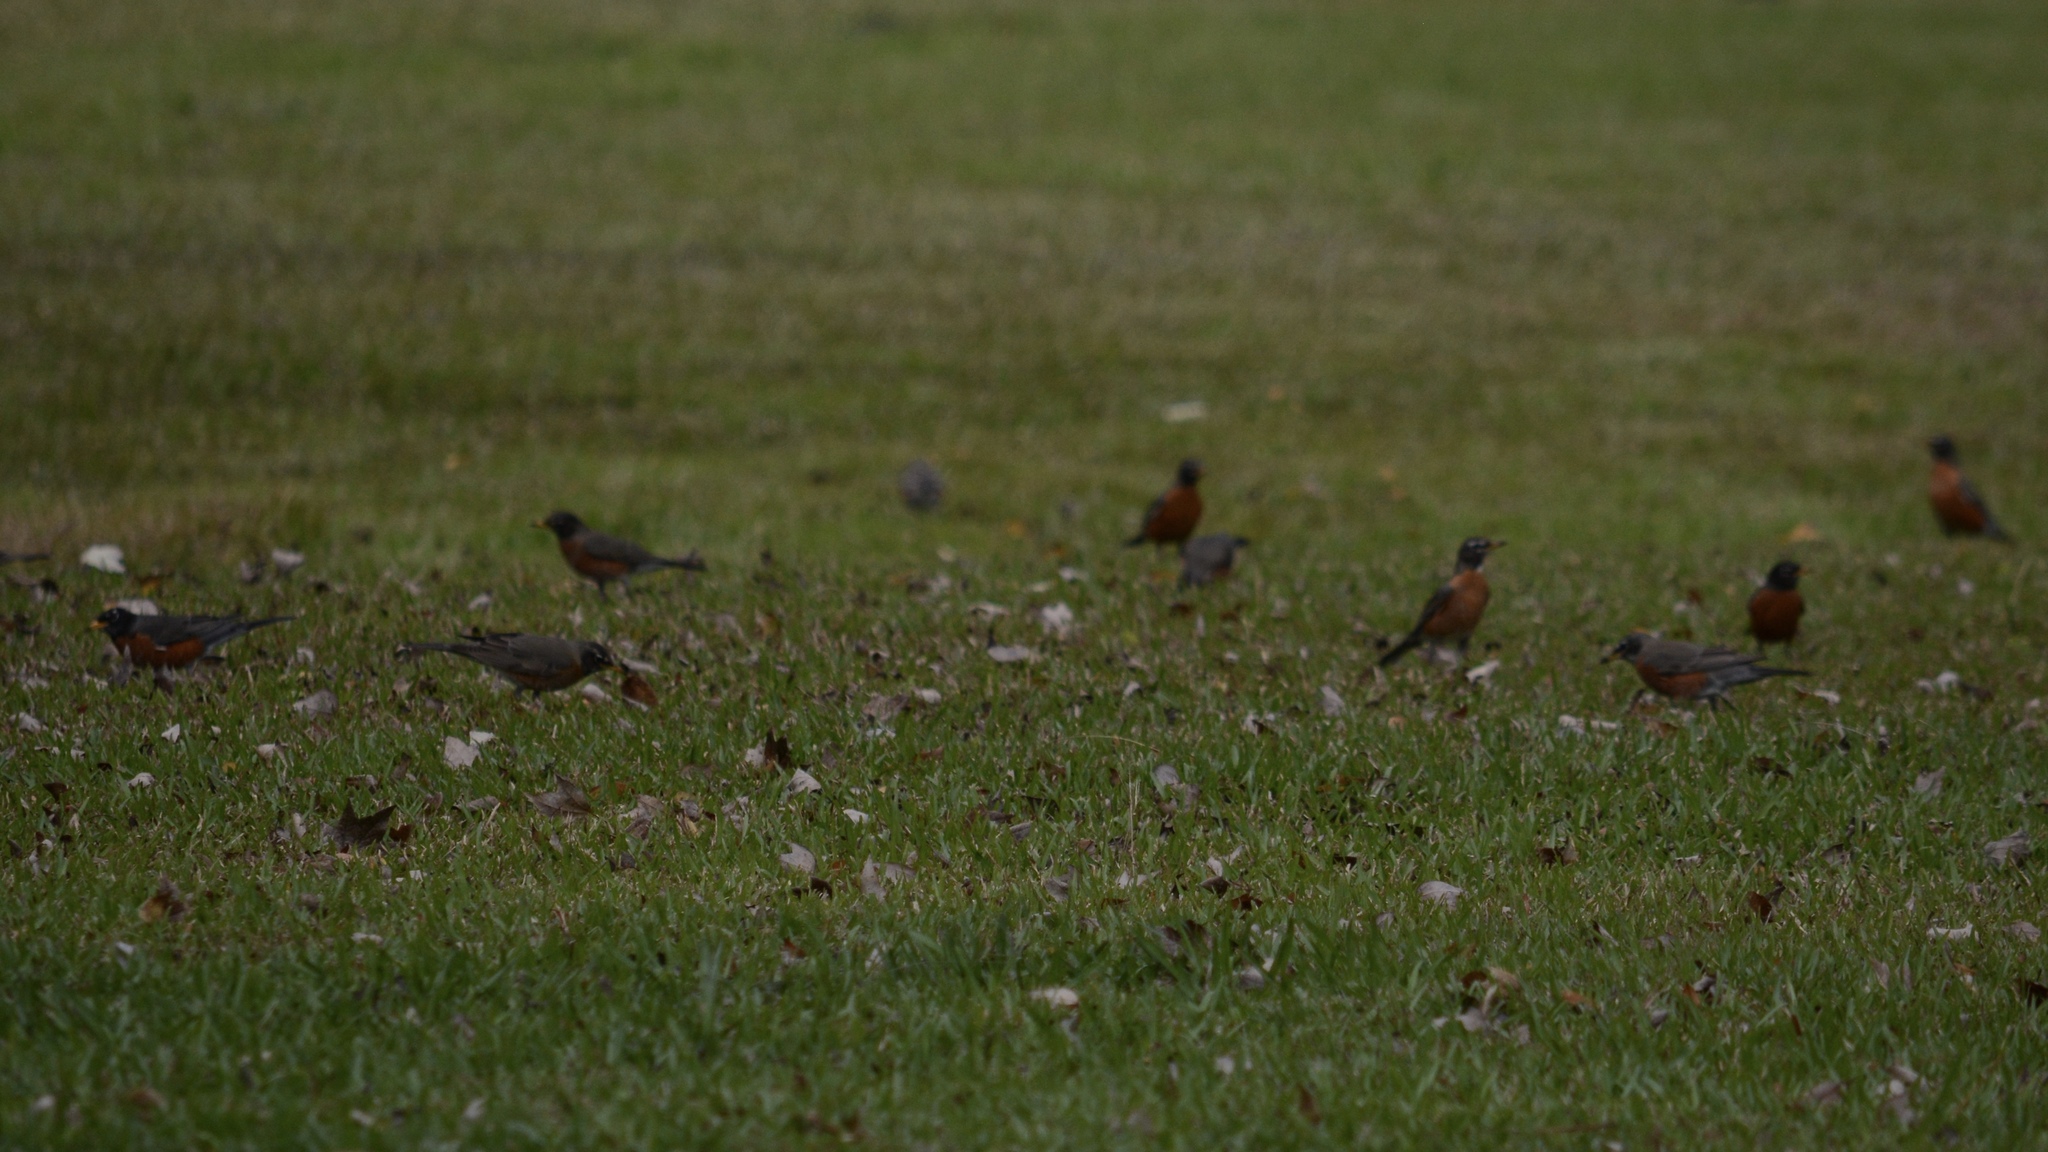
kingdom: Animalia
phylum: Chordata
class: Aves
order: Passeriformes
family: Turdidae
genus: Turdus
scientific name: Turdus migratorius
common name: American robin
